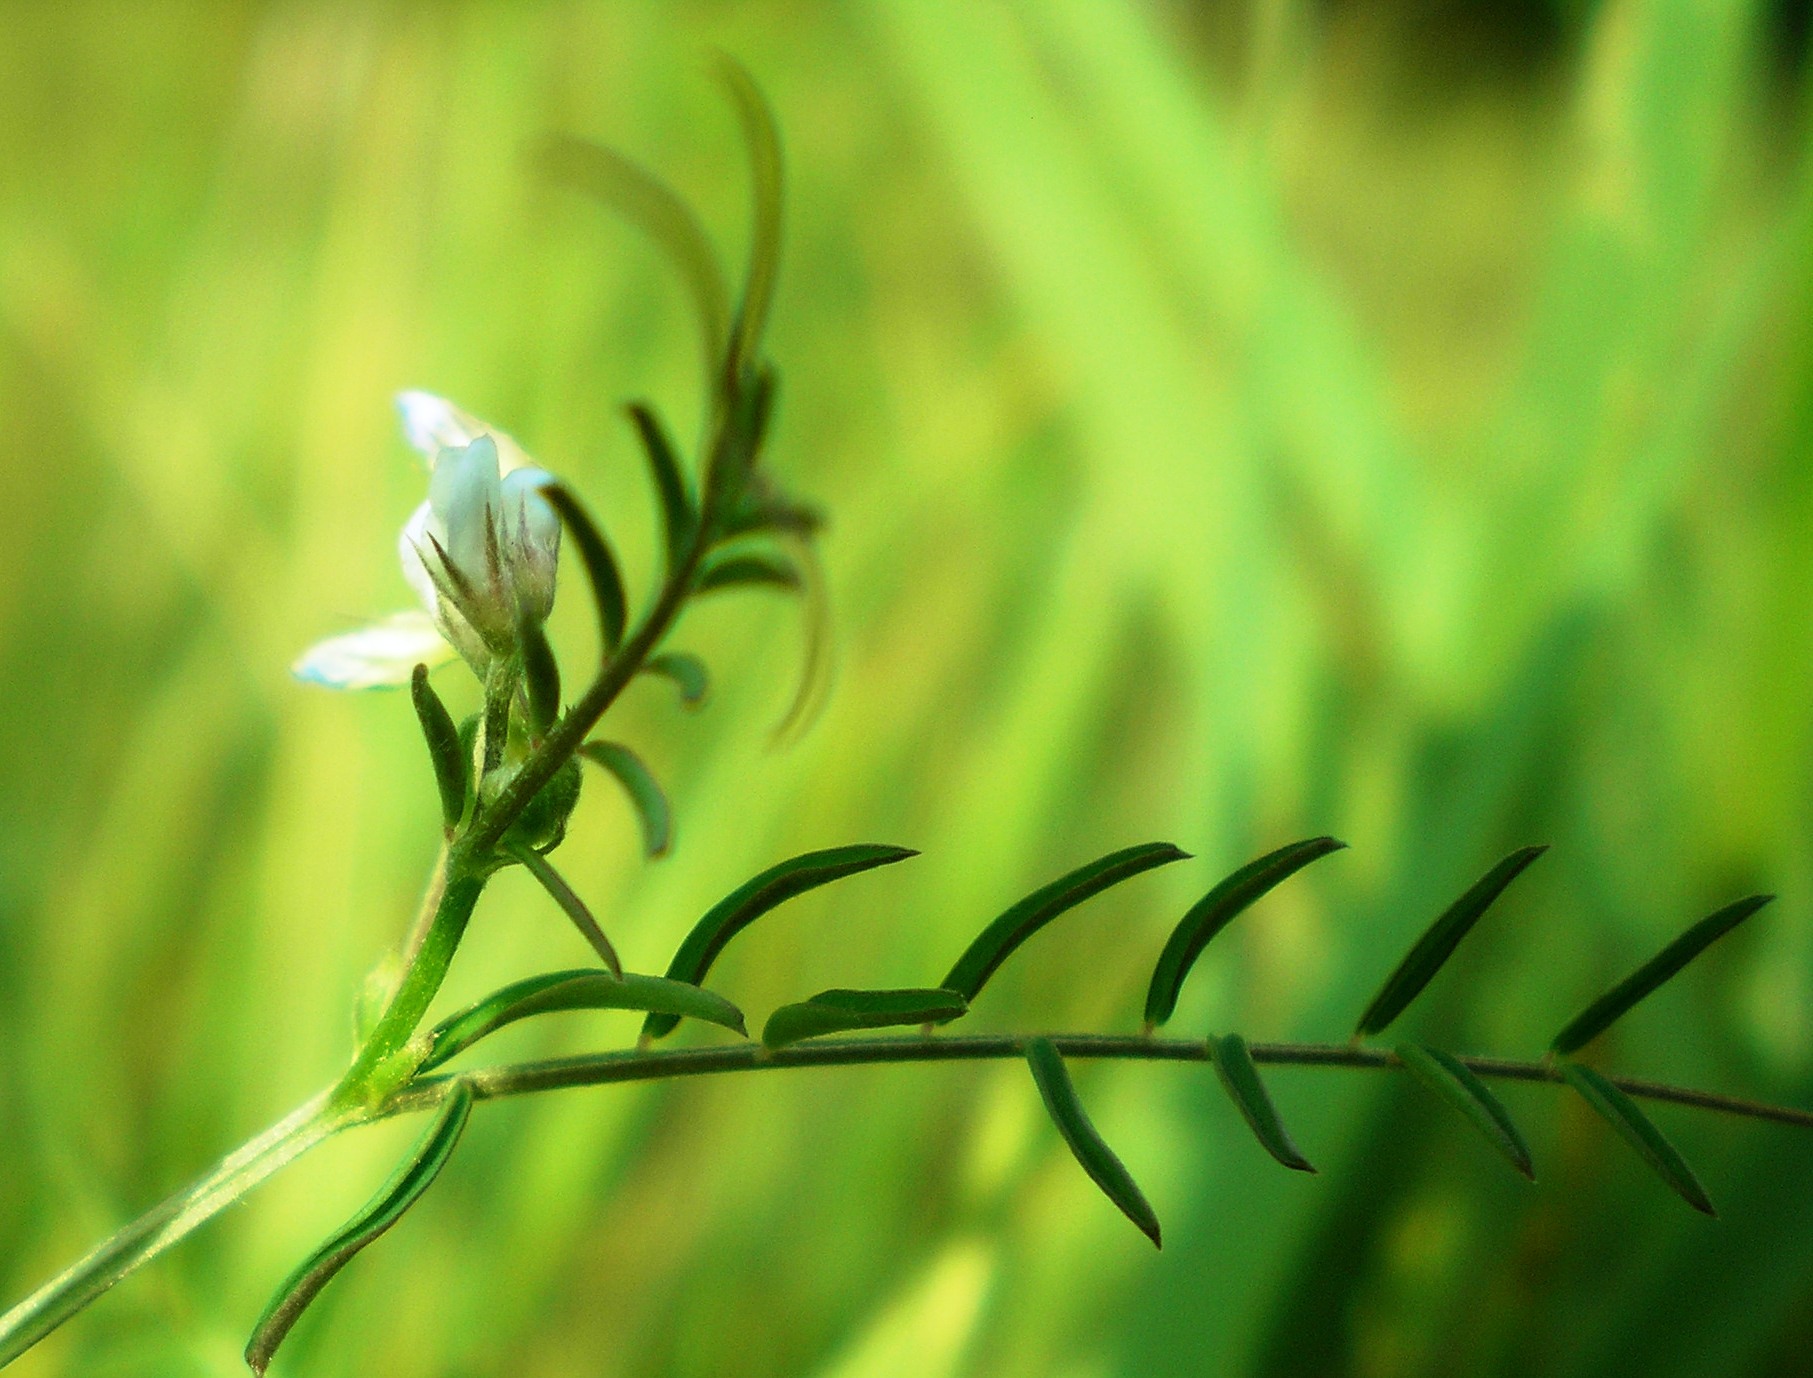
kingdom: Plantae
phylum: Tracheophyta
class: Magnoliopsida
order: Fabales
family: Fabaceae
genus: Vicia
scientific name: Vicia hirsuta
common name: Tiny vetch
